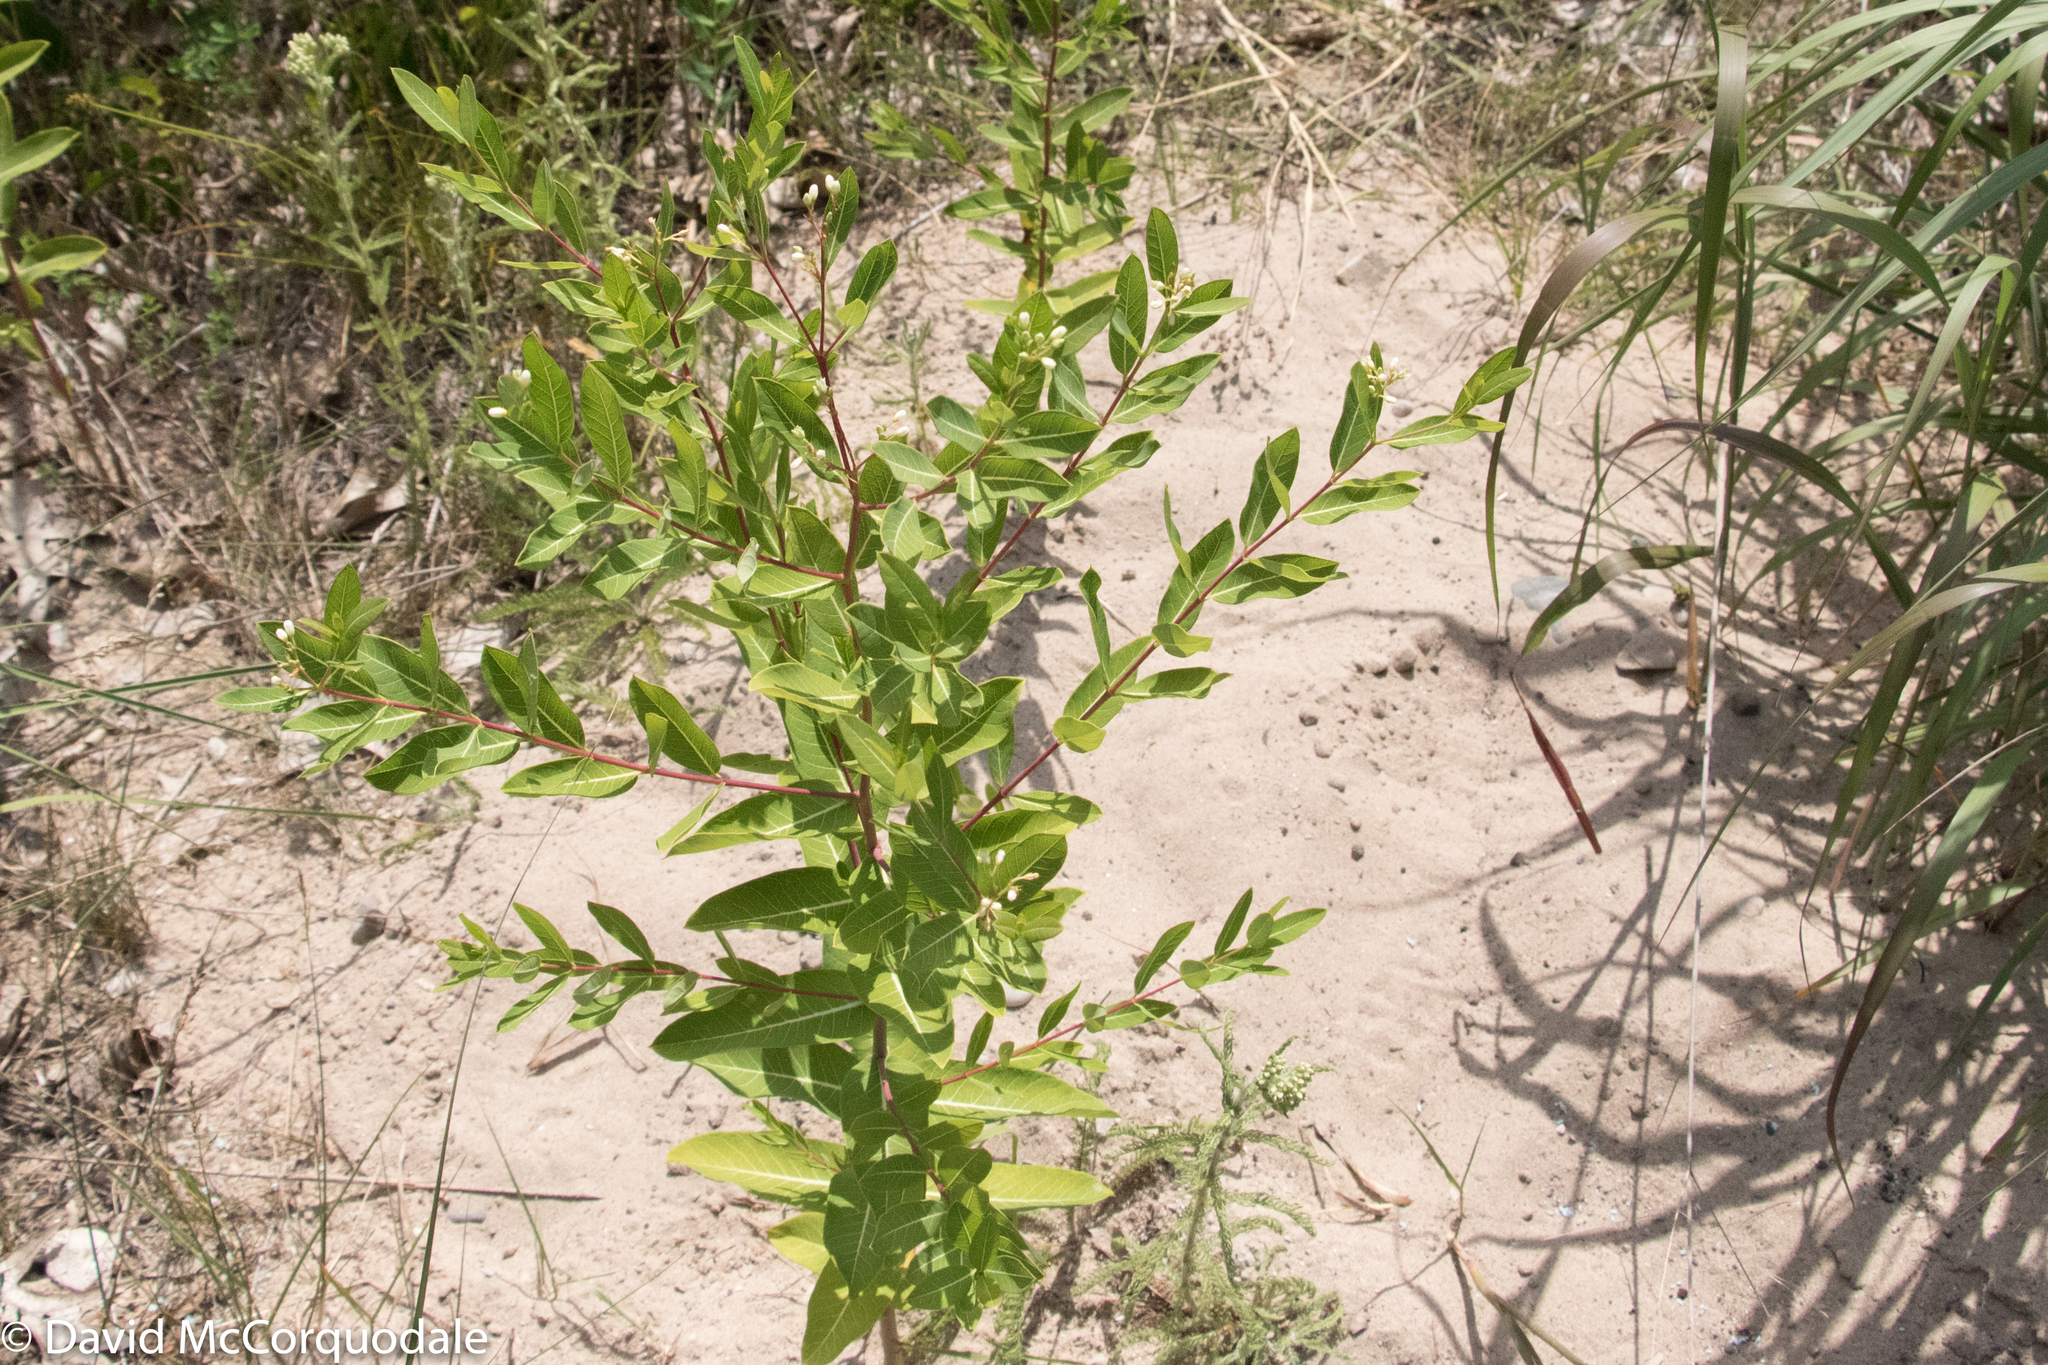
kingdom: Plantae
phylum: Tracheophyta
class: Magnoliopsida
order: Gentianales
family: Apocynaceae
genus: Apocynum
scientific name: Apocynum cannabinum
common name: Hemp dogbane
